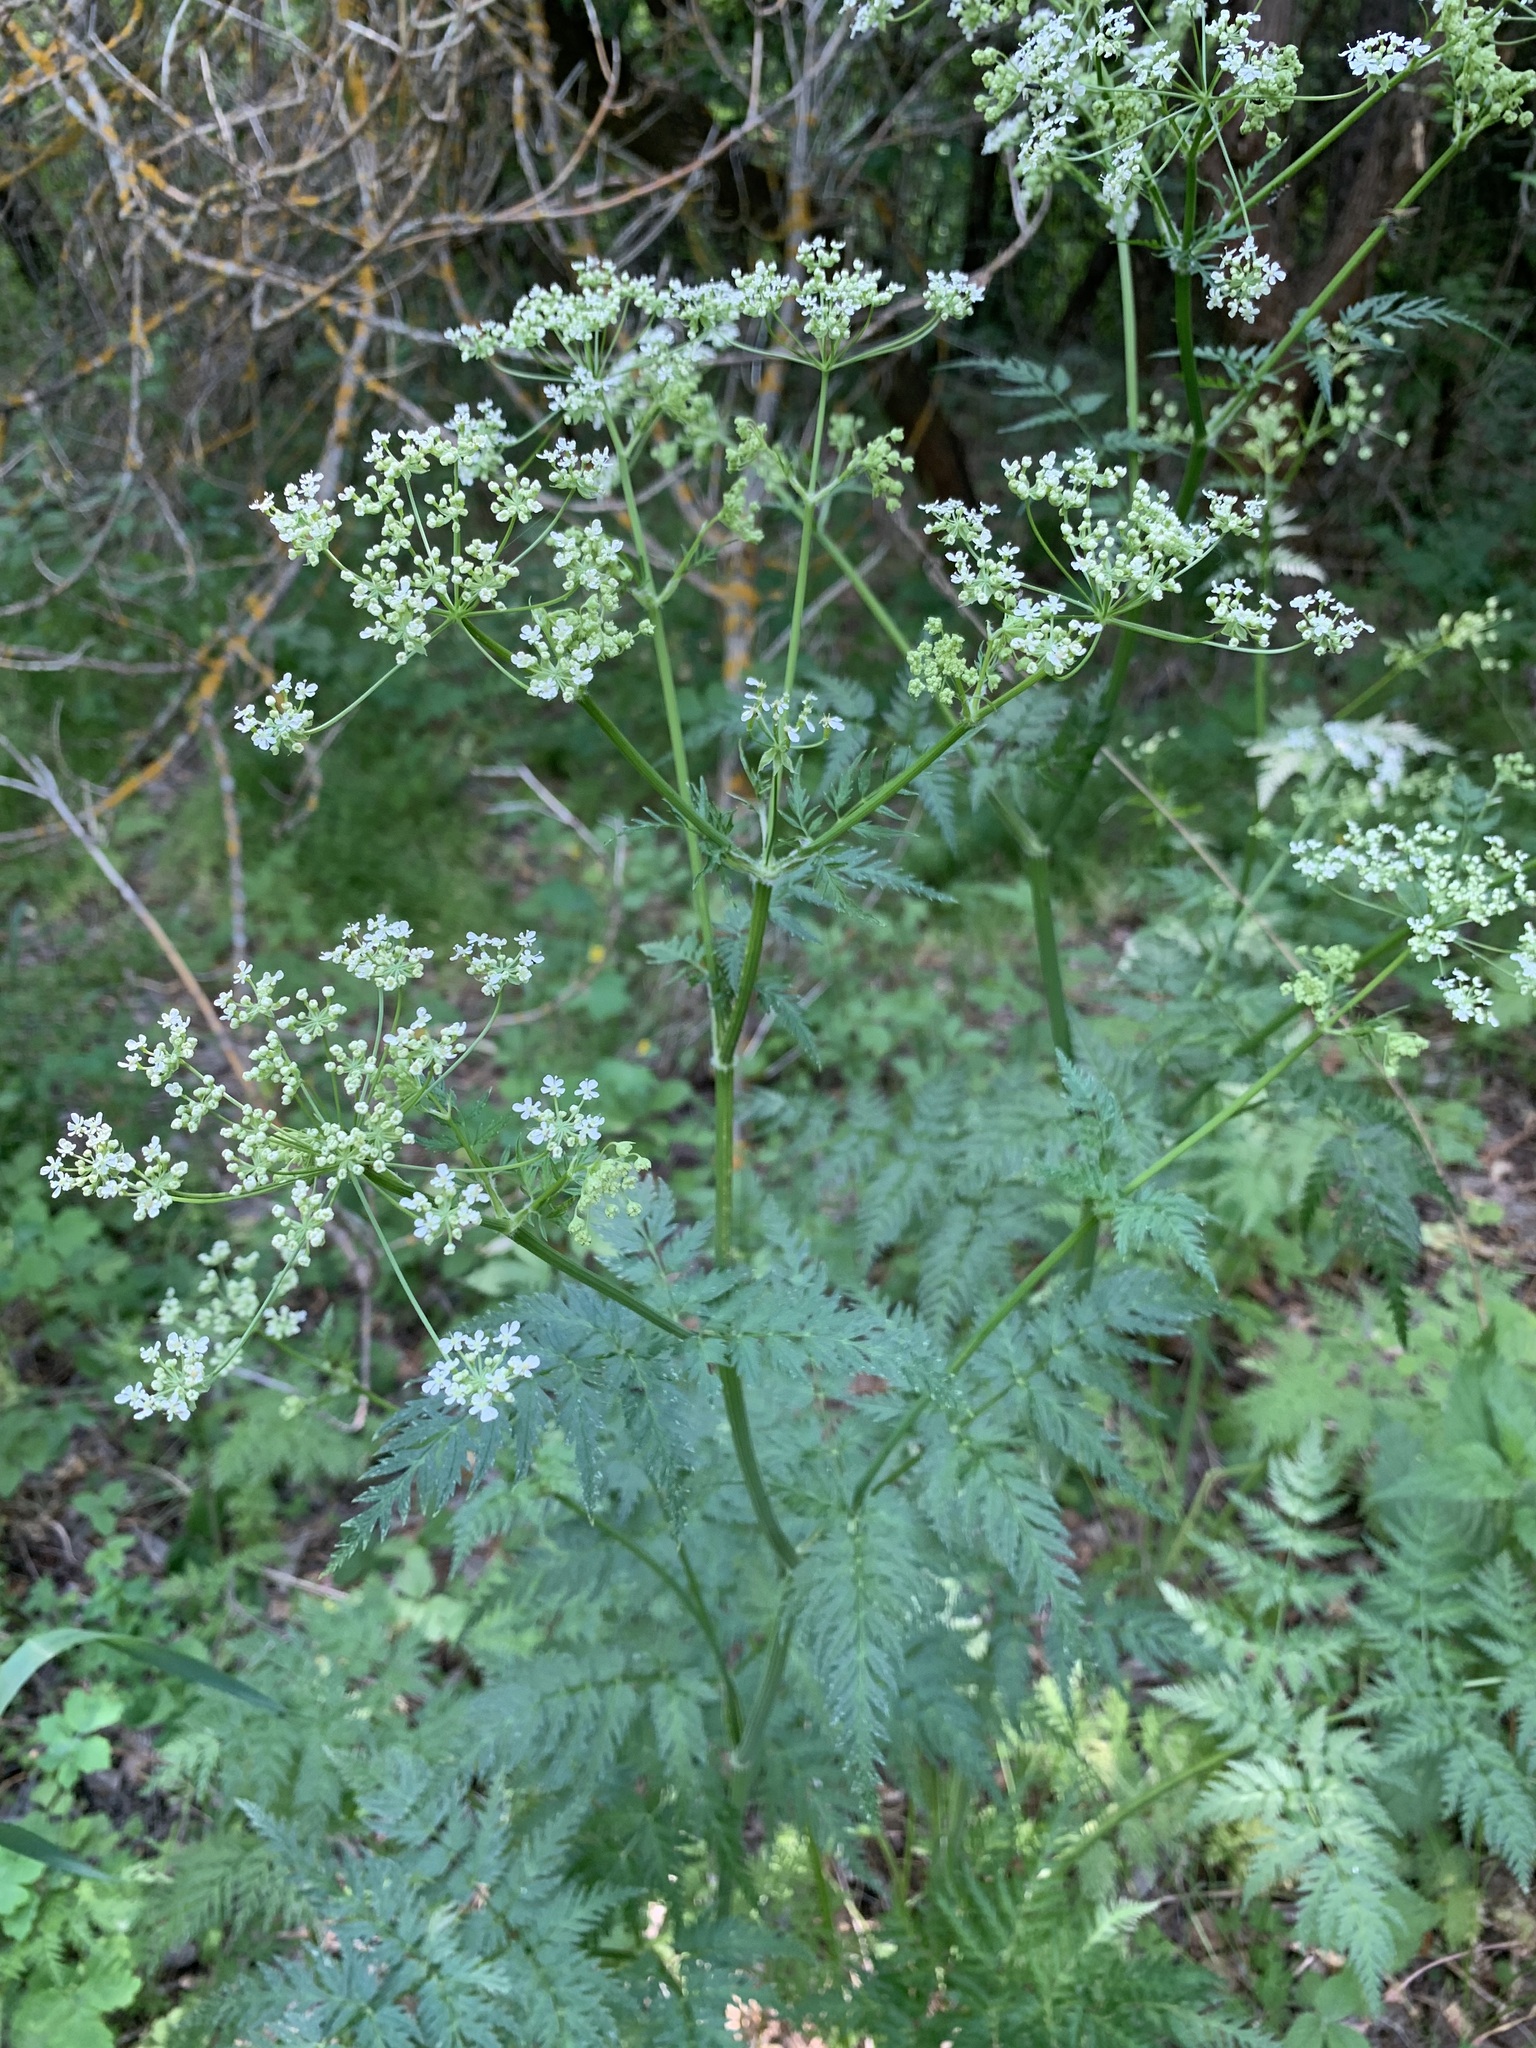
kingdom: Plantae
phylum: Tracheophyta
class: Magnoliopsida
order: Apiales
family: Apiaceae
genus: Conium
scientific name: Conium maculatum
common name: Hemlock
